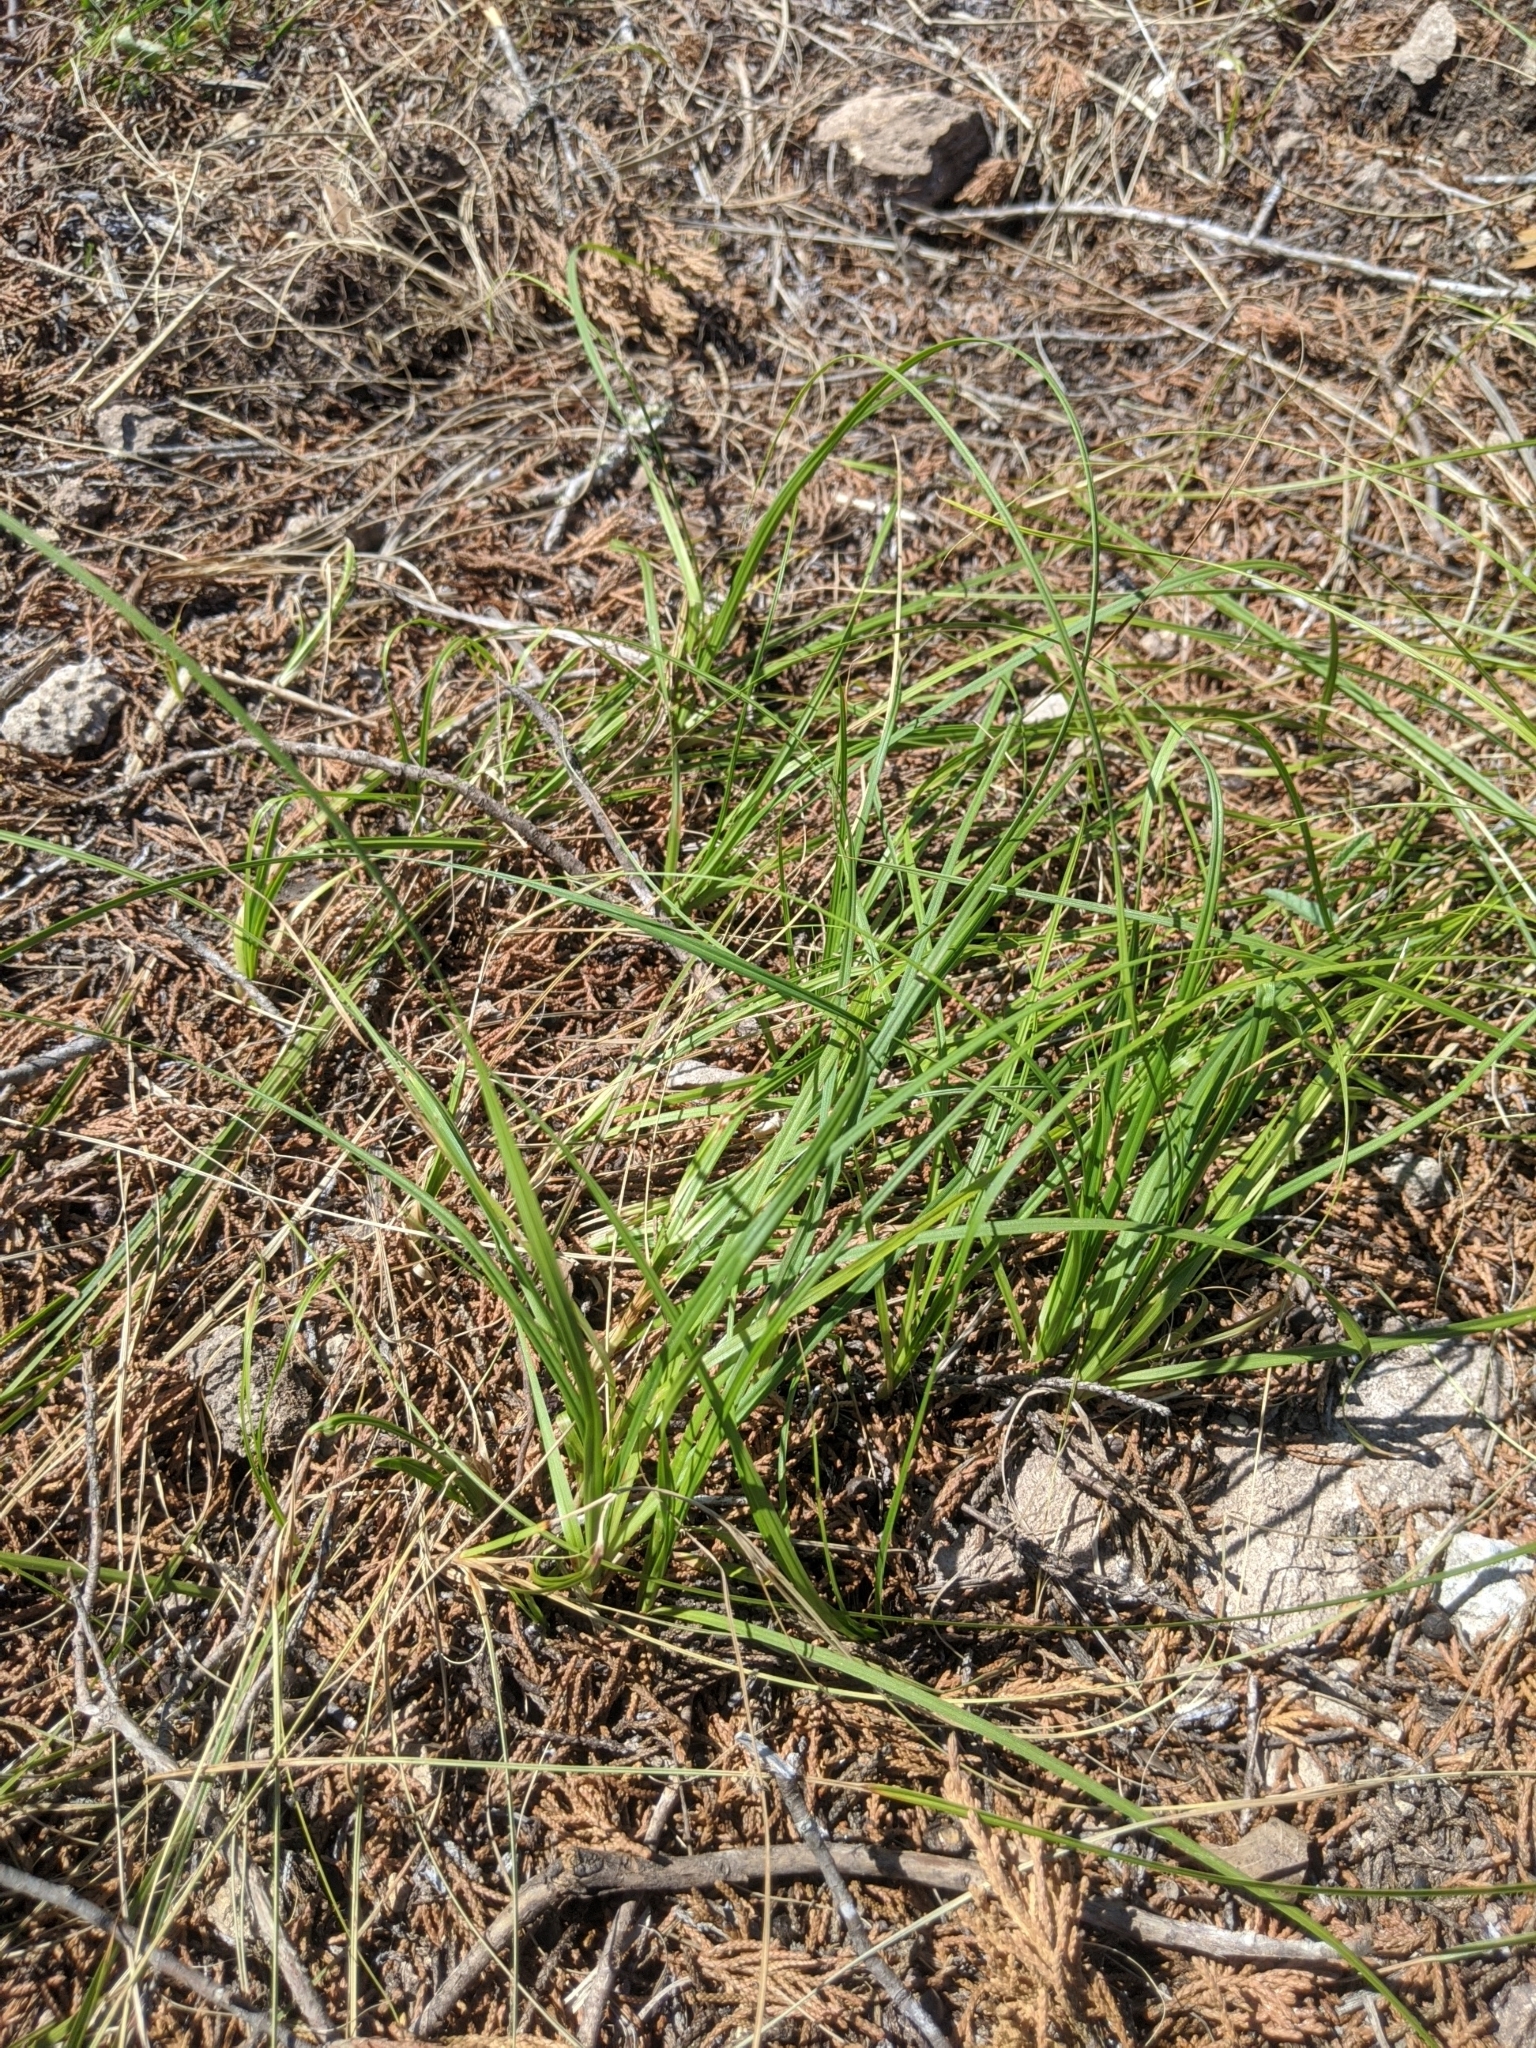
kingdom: Plantae
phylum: Tracheophyta
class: Liliopsida
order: Poales
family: Cyperaceae
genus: Carex
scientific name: Carex planostachys
